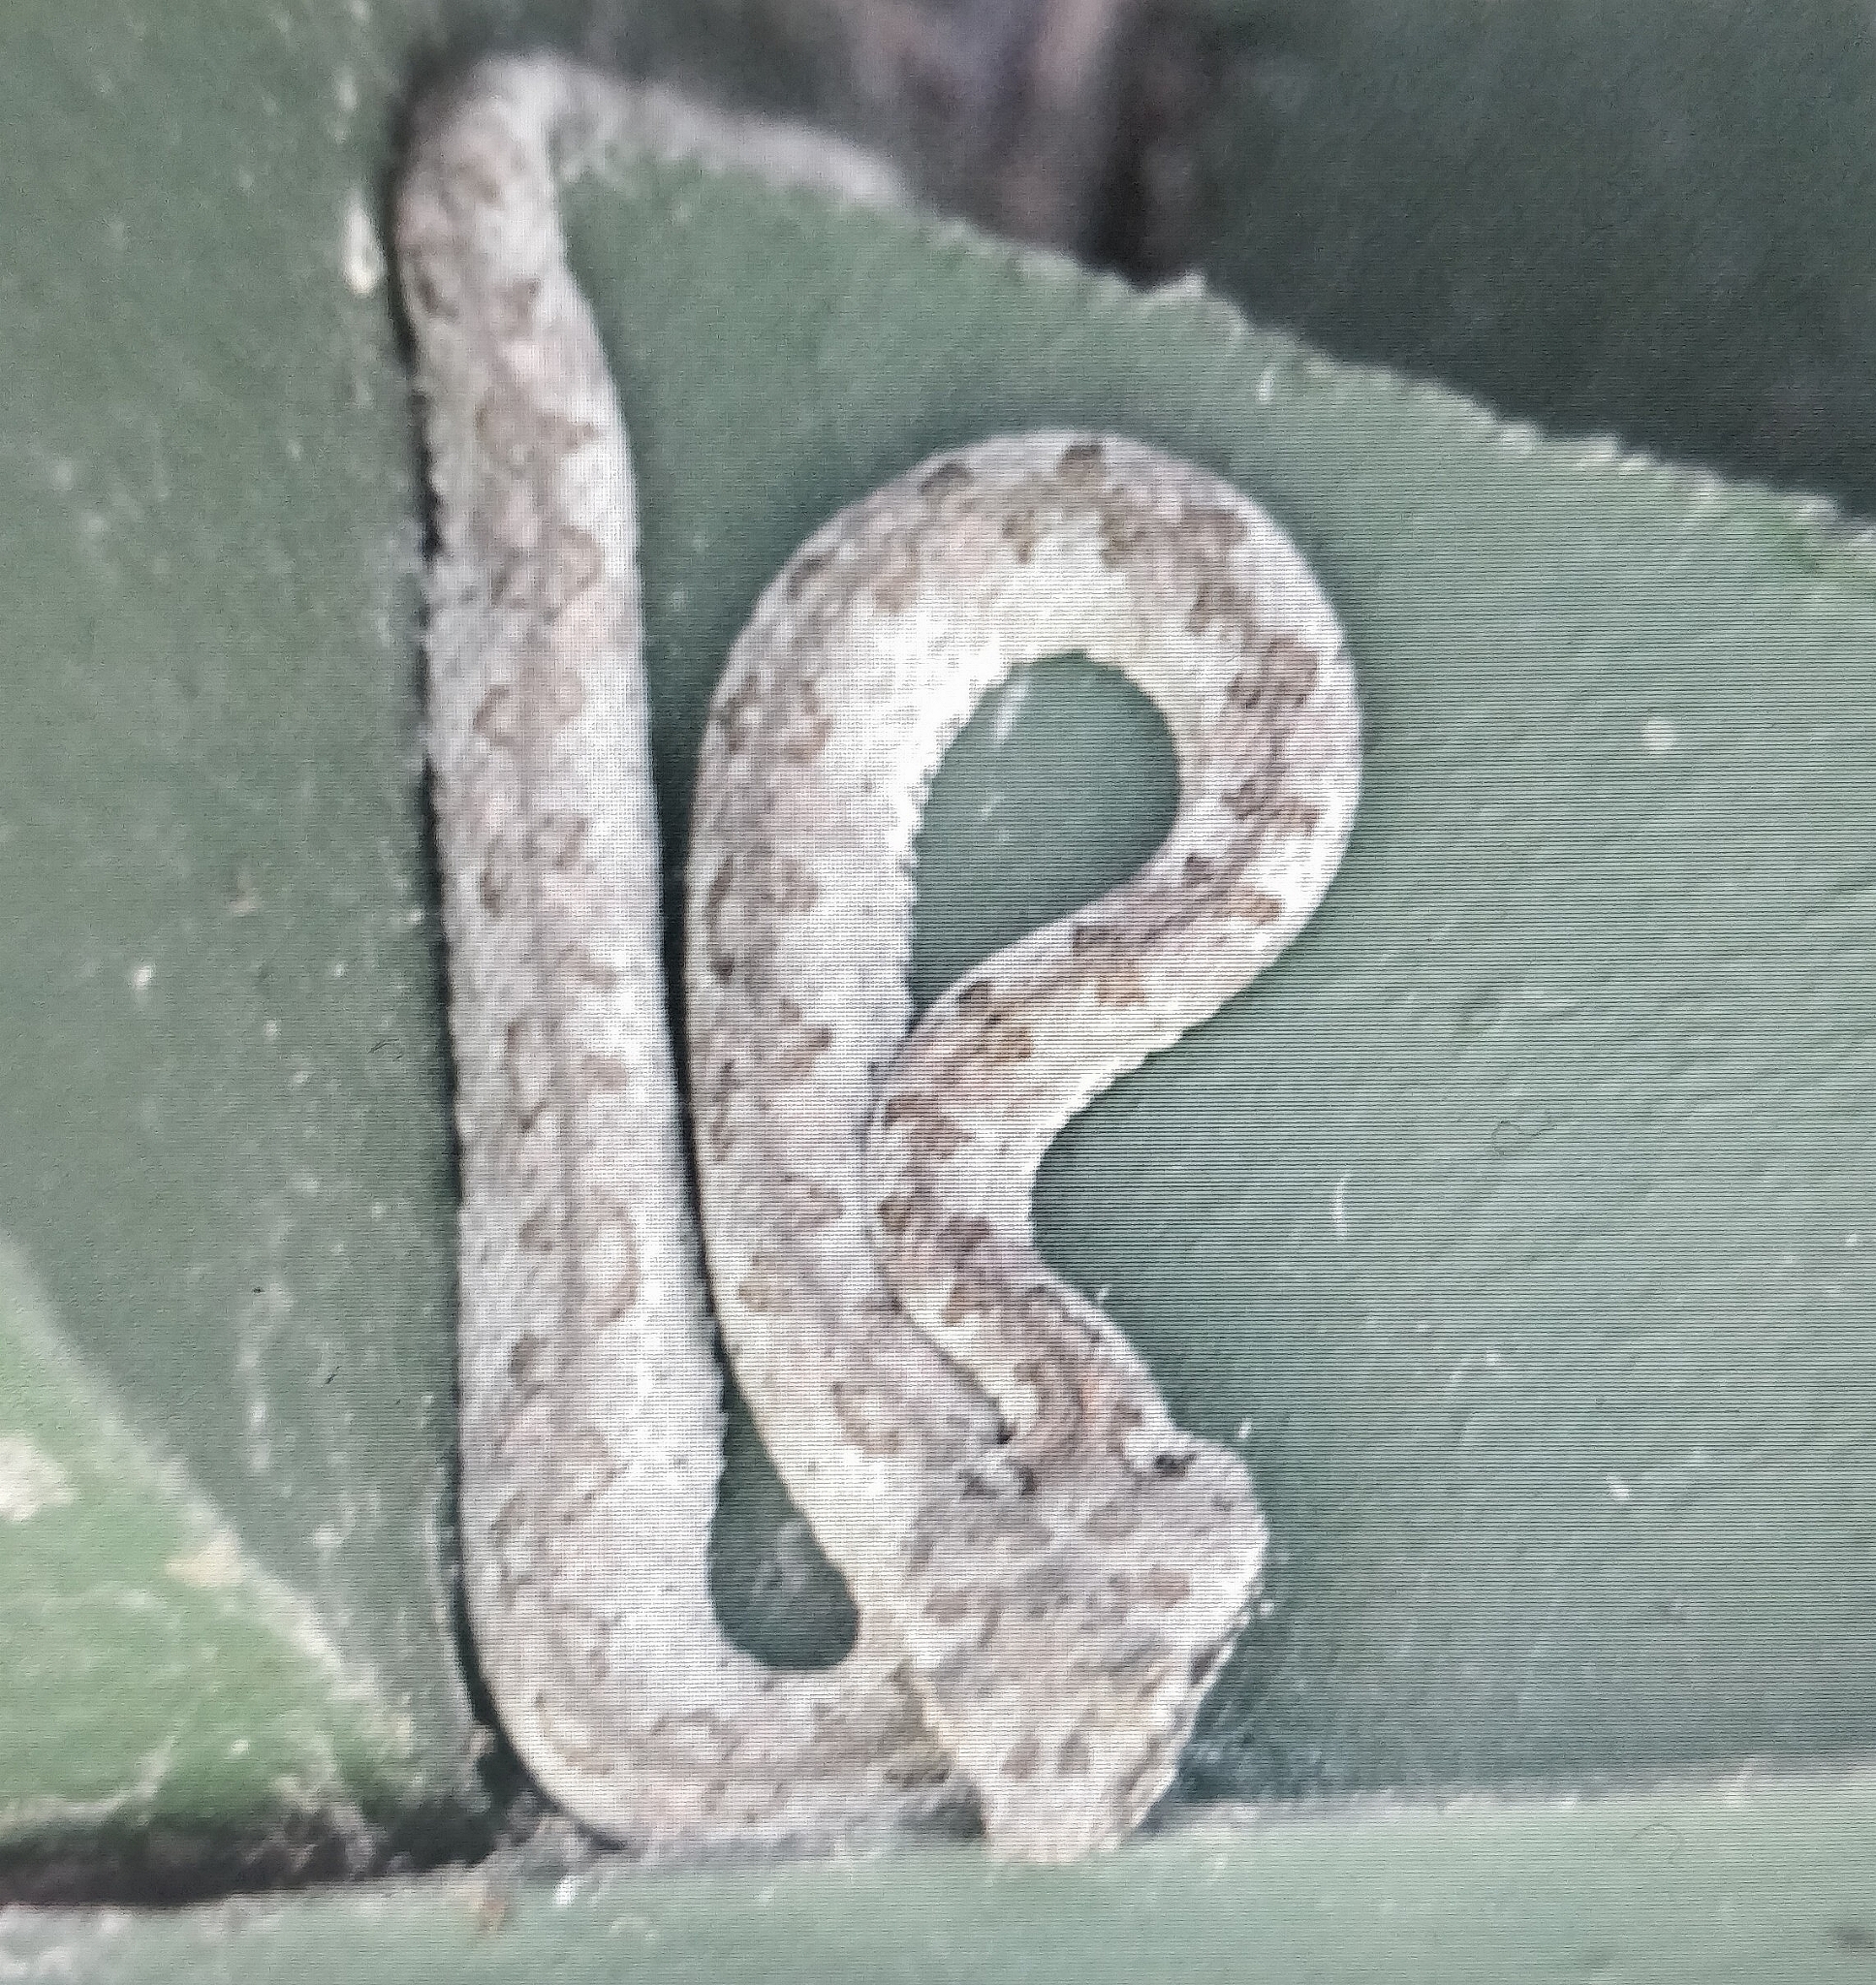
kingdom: Animalia
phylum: Chordata
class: Squamata
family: Viperidae
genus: Bothriechis
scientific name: Bothriechis schlegelii
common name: Eyelash viper
